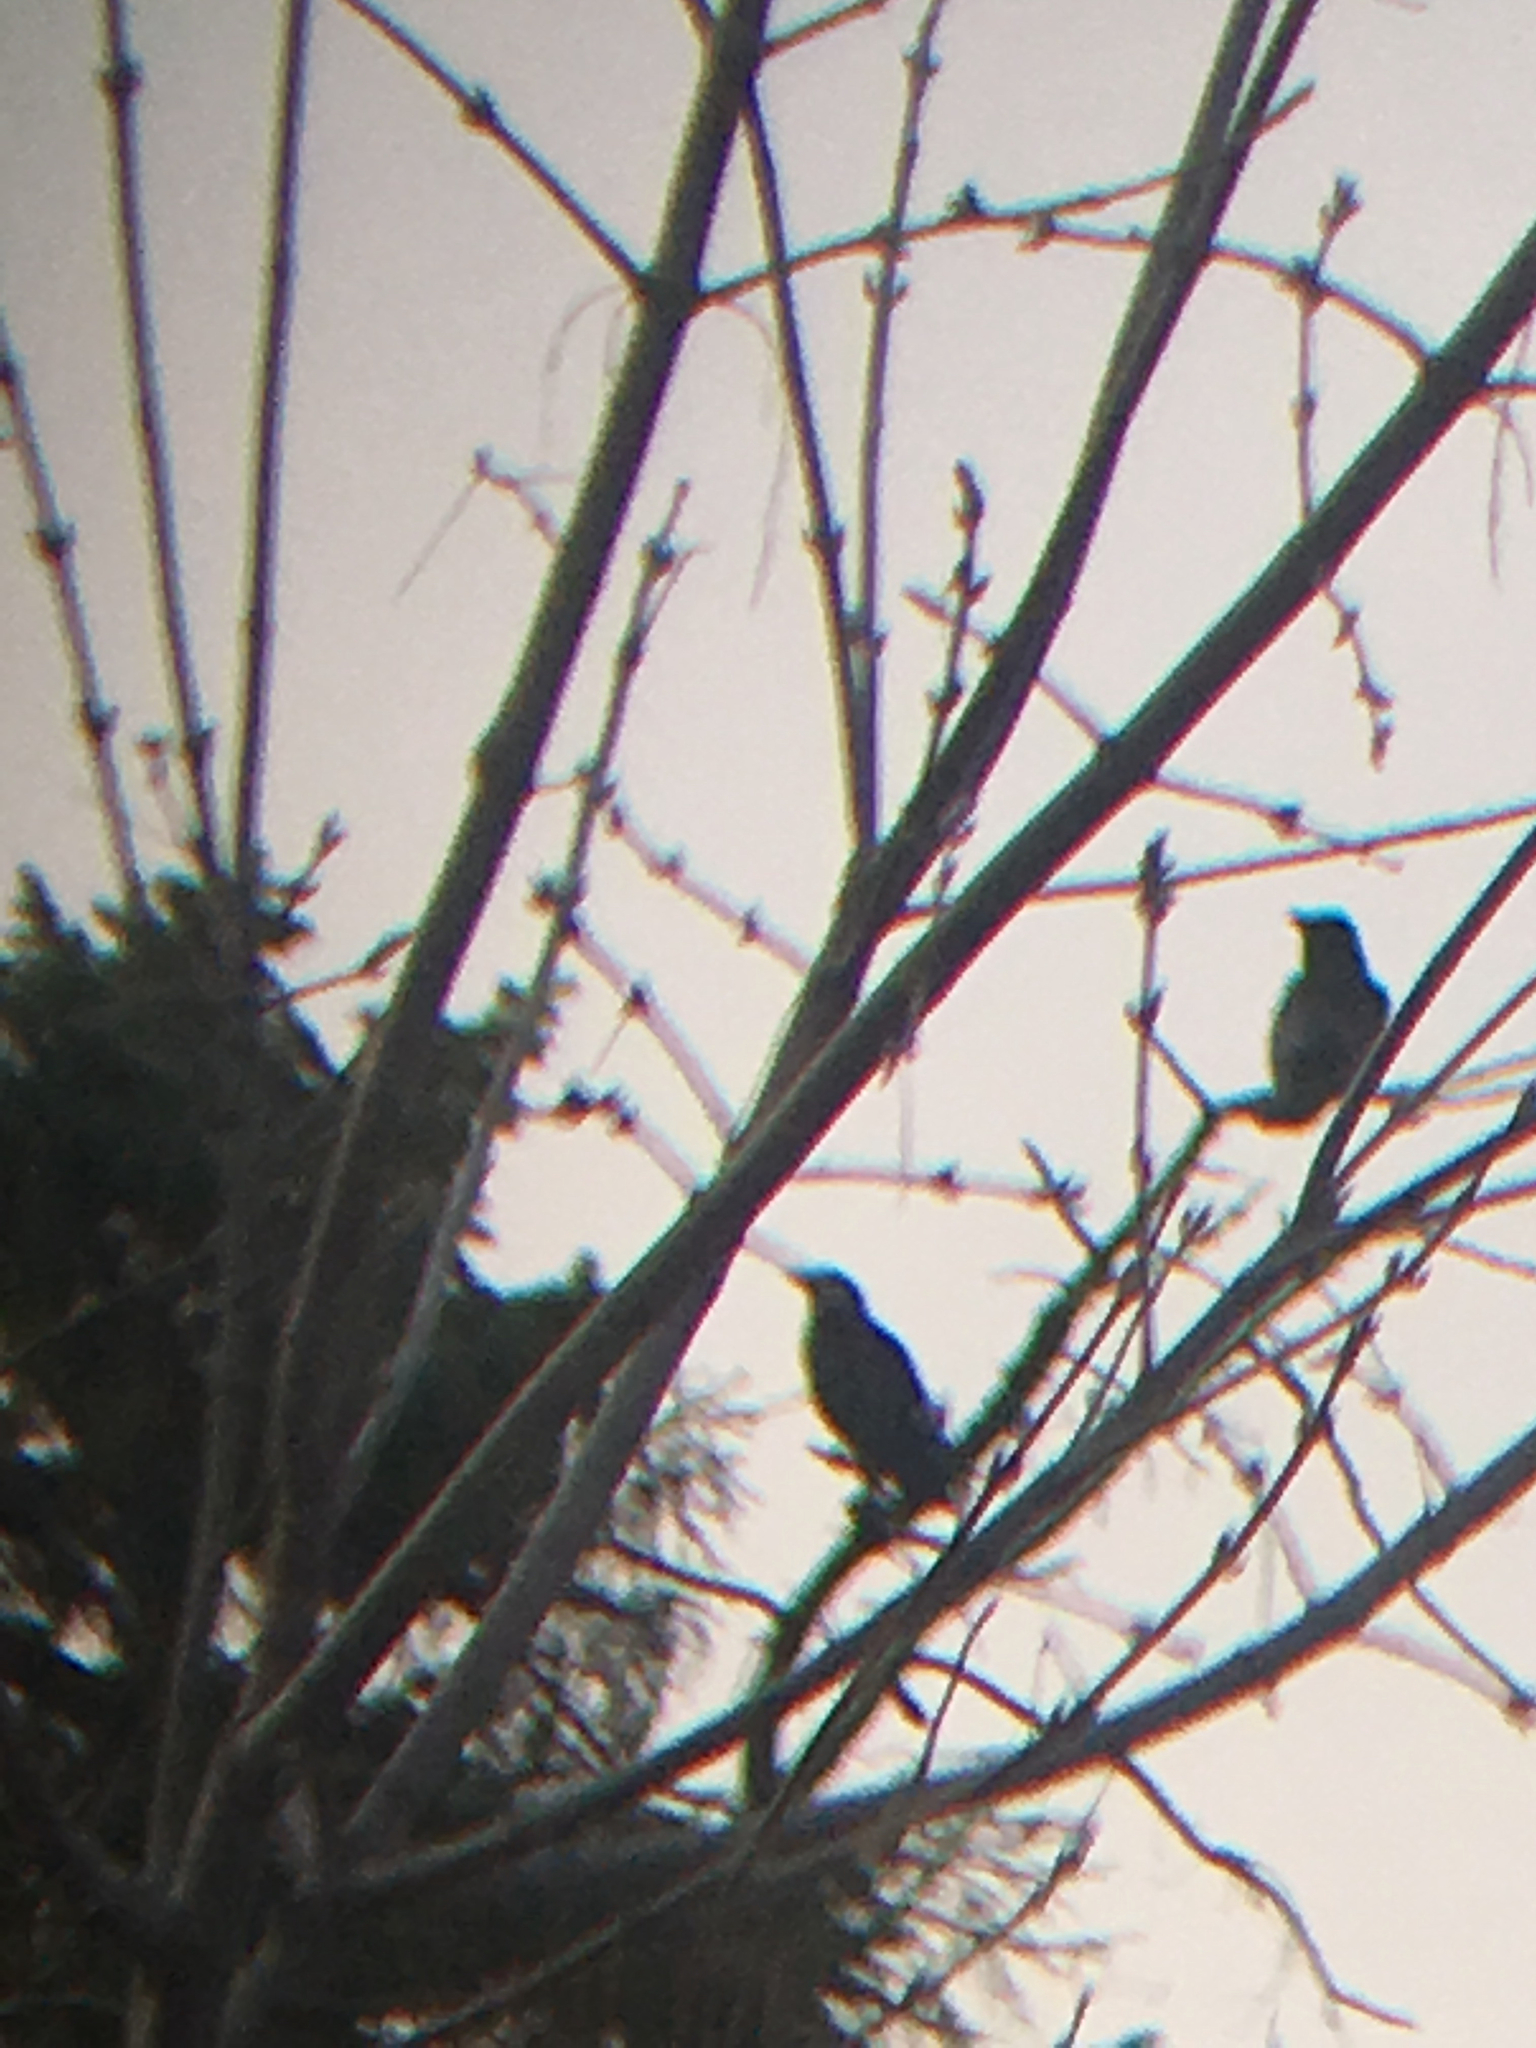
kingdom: Animalia
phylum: Chordata
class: Aves
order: Passeriformes
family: Corvidae
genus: Corvus
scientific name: Corvus brachyrhynchos
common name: American crow
